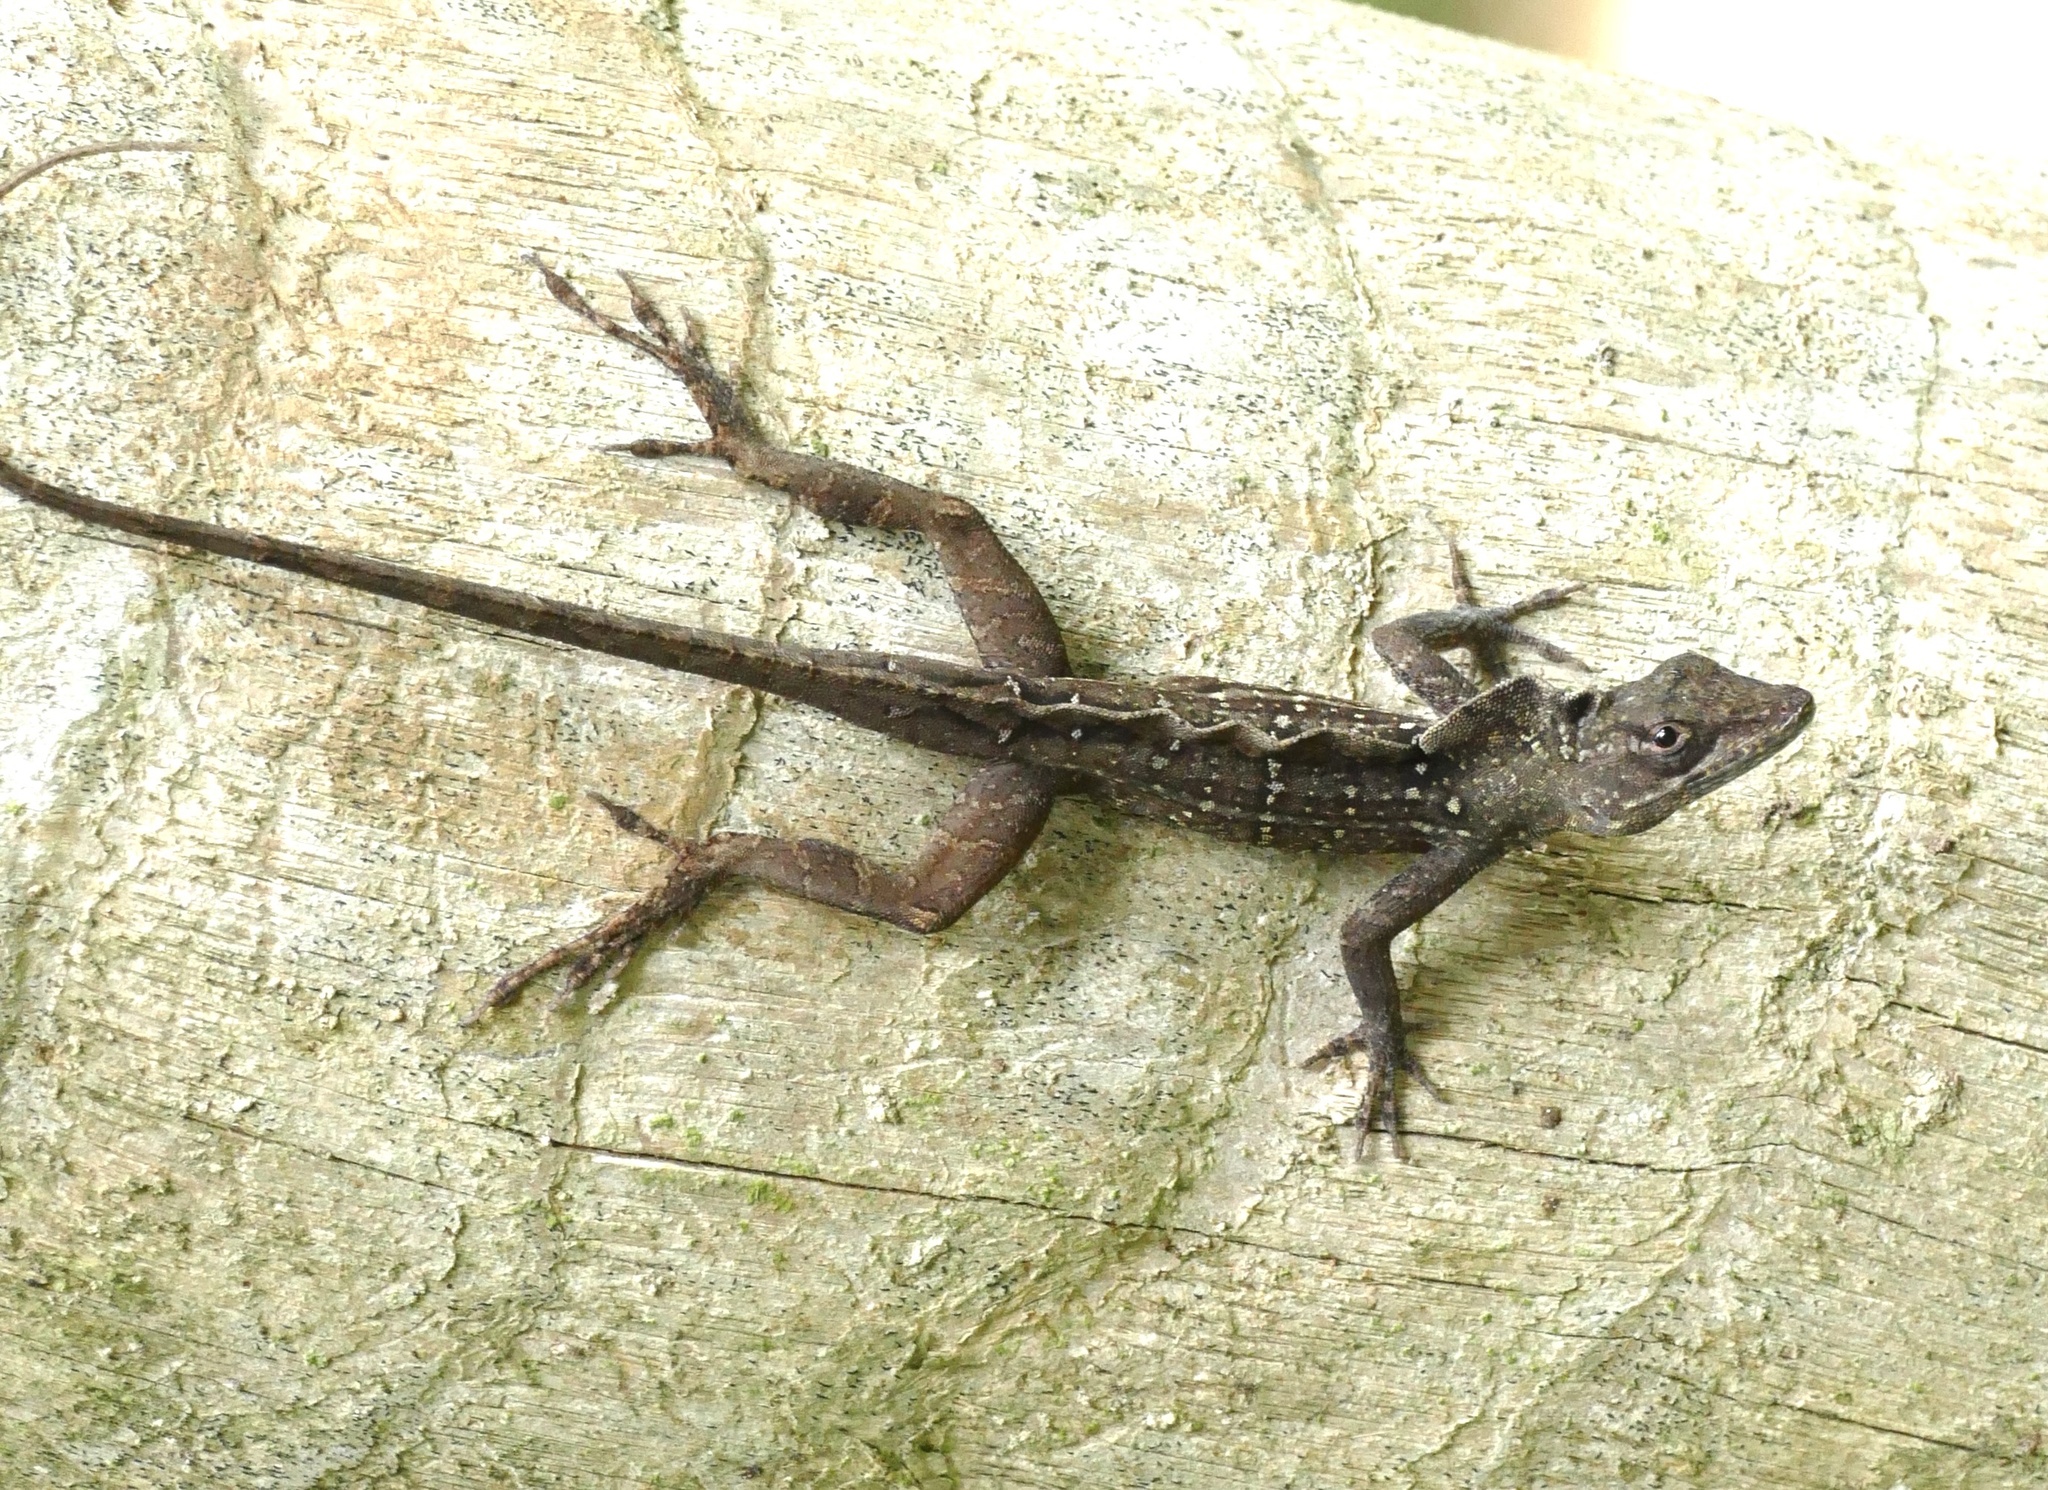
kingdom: Animalia
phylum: Chordata
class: Squamata
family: Dactyloidae
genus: Anolis
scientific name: Anolis sagrei
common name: Brown anole
